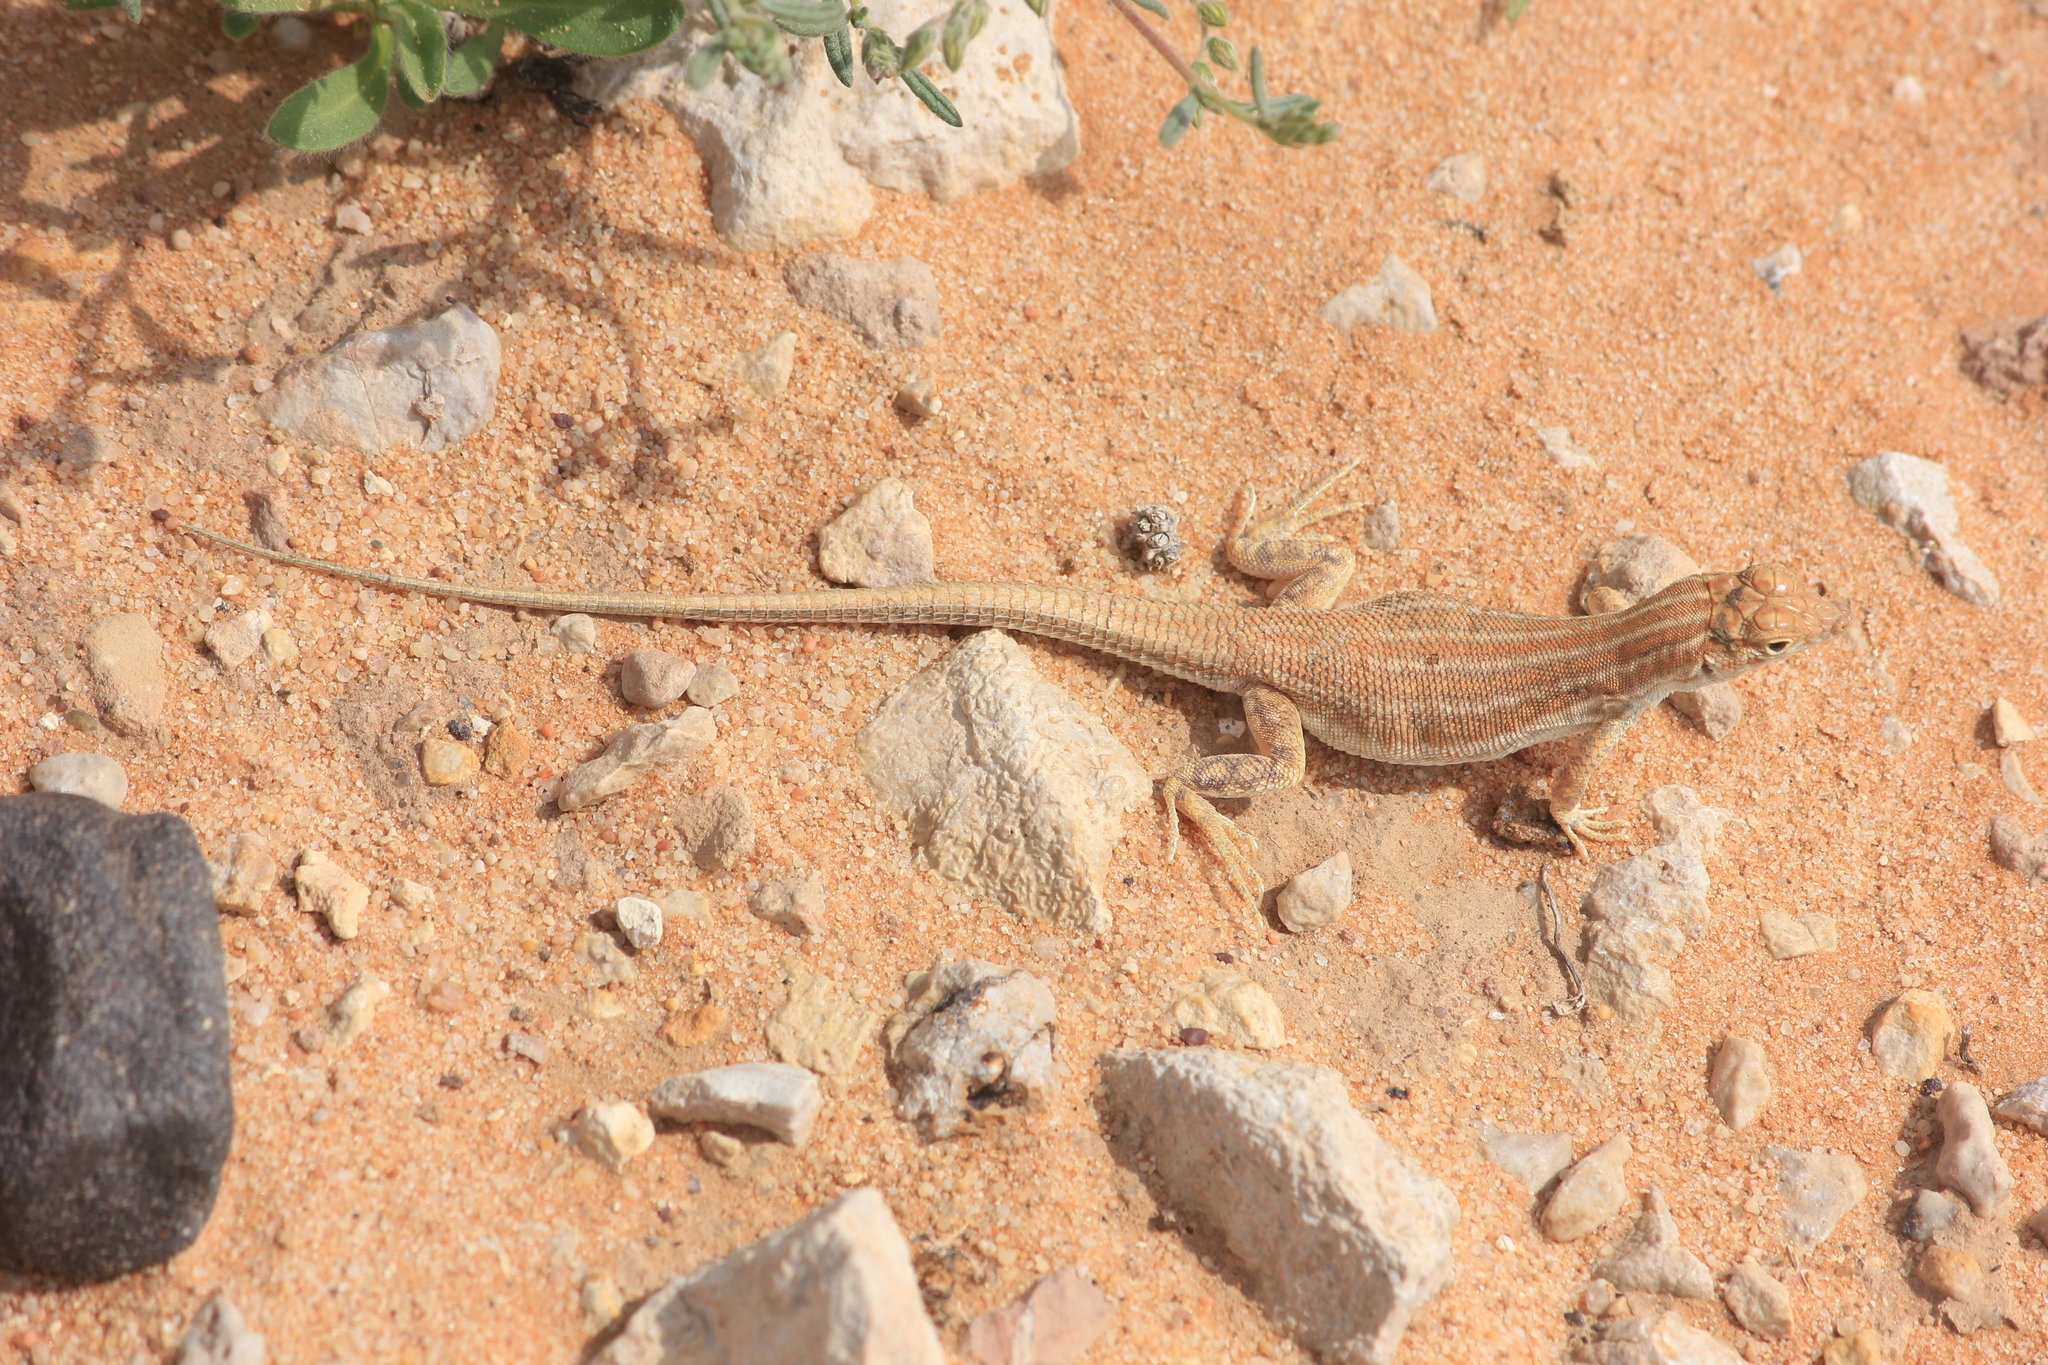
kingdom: Animalia
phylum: Chordata
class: Squamata
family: Lacertidae
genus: Acanthodactylus
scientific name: Acanthodactylus opheodurus
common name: Arnold's fringe-fingered lizard
